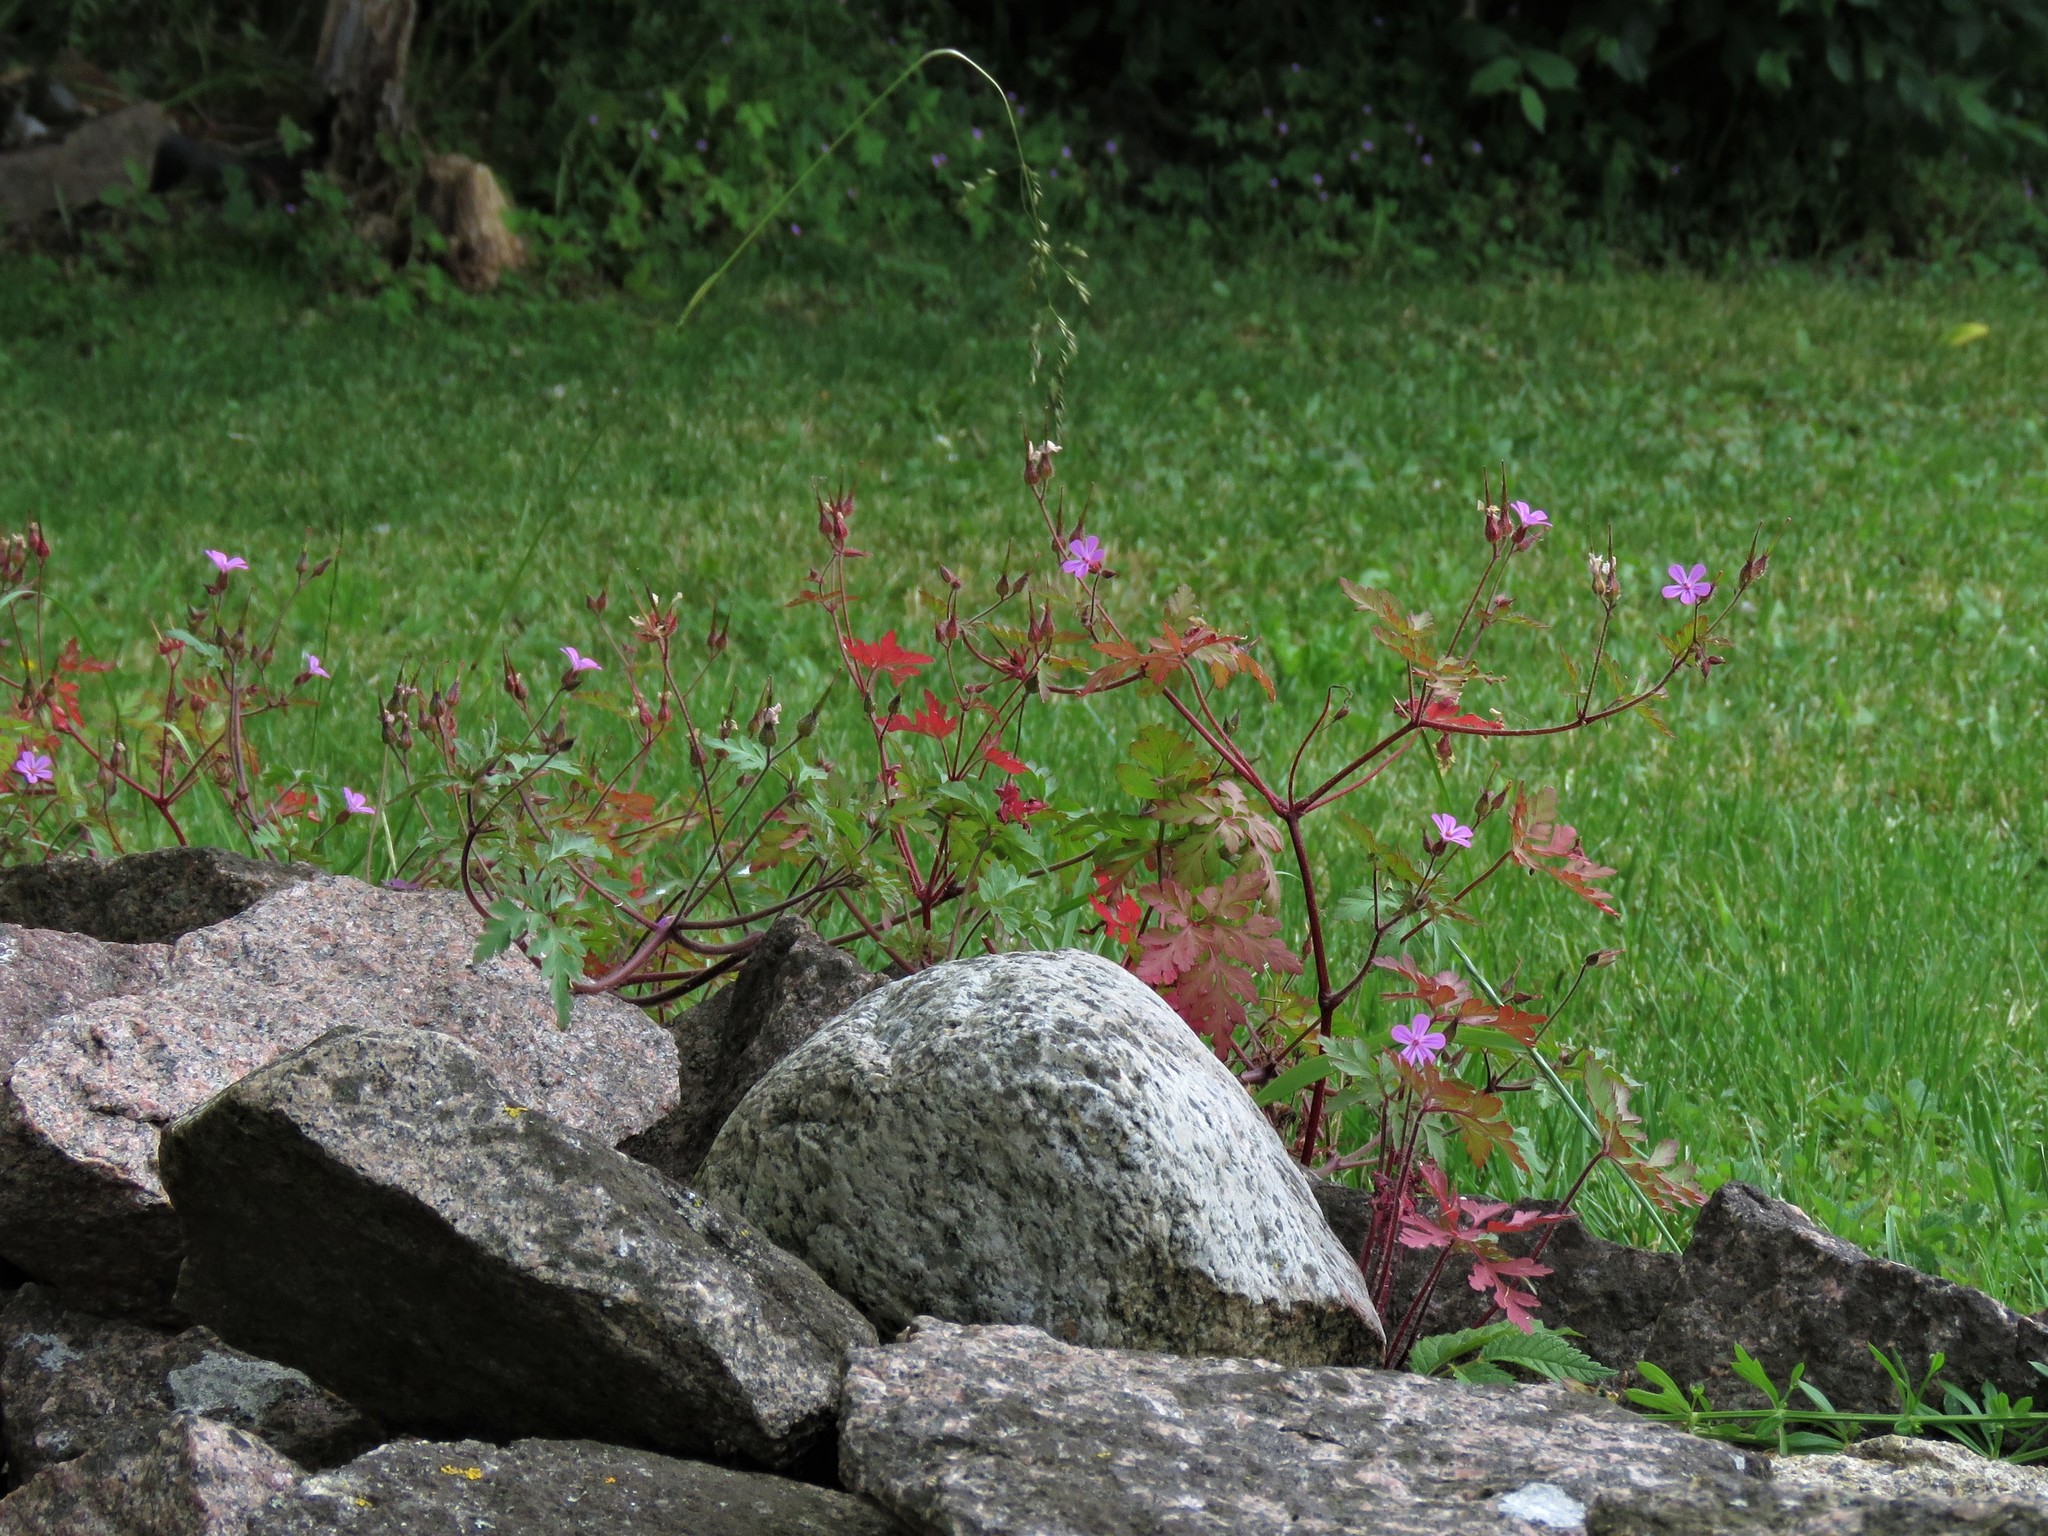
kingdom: Plantae
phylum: Tracheophyta
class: Magnoliopsida
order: Geraniales
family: Geraniaceae
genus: Geranium
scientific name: Geranium robertianum
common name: Herb-robert
